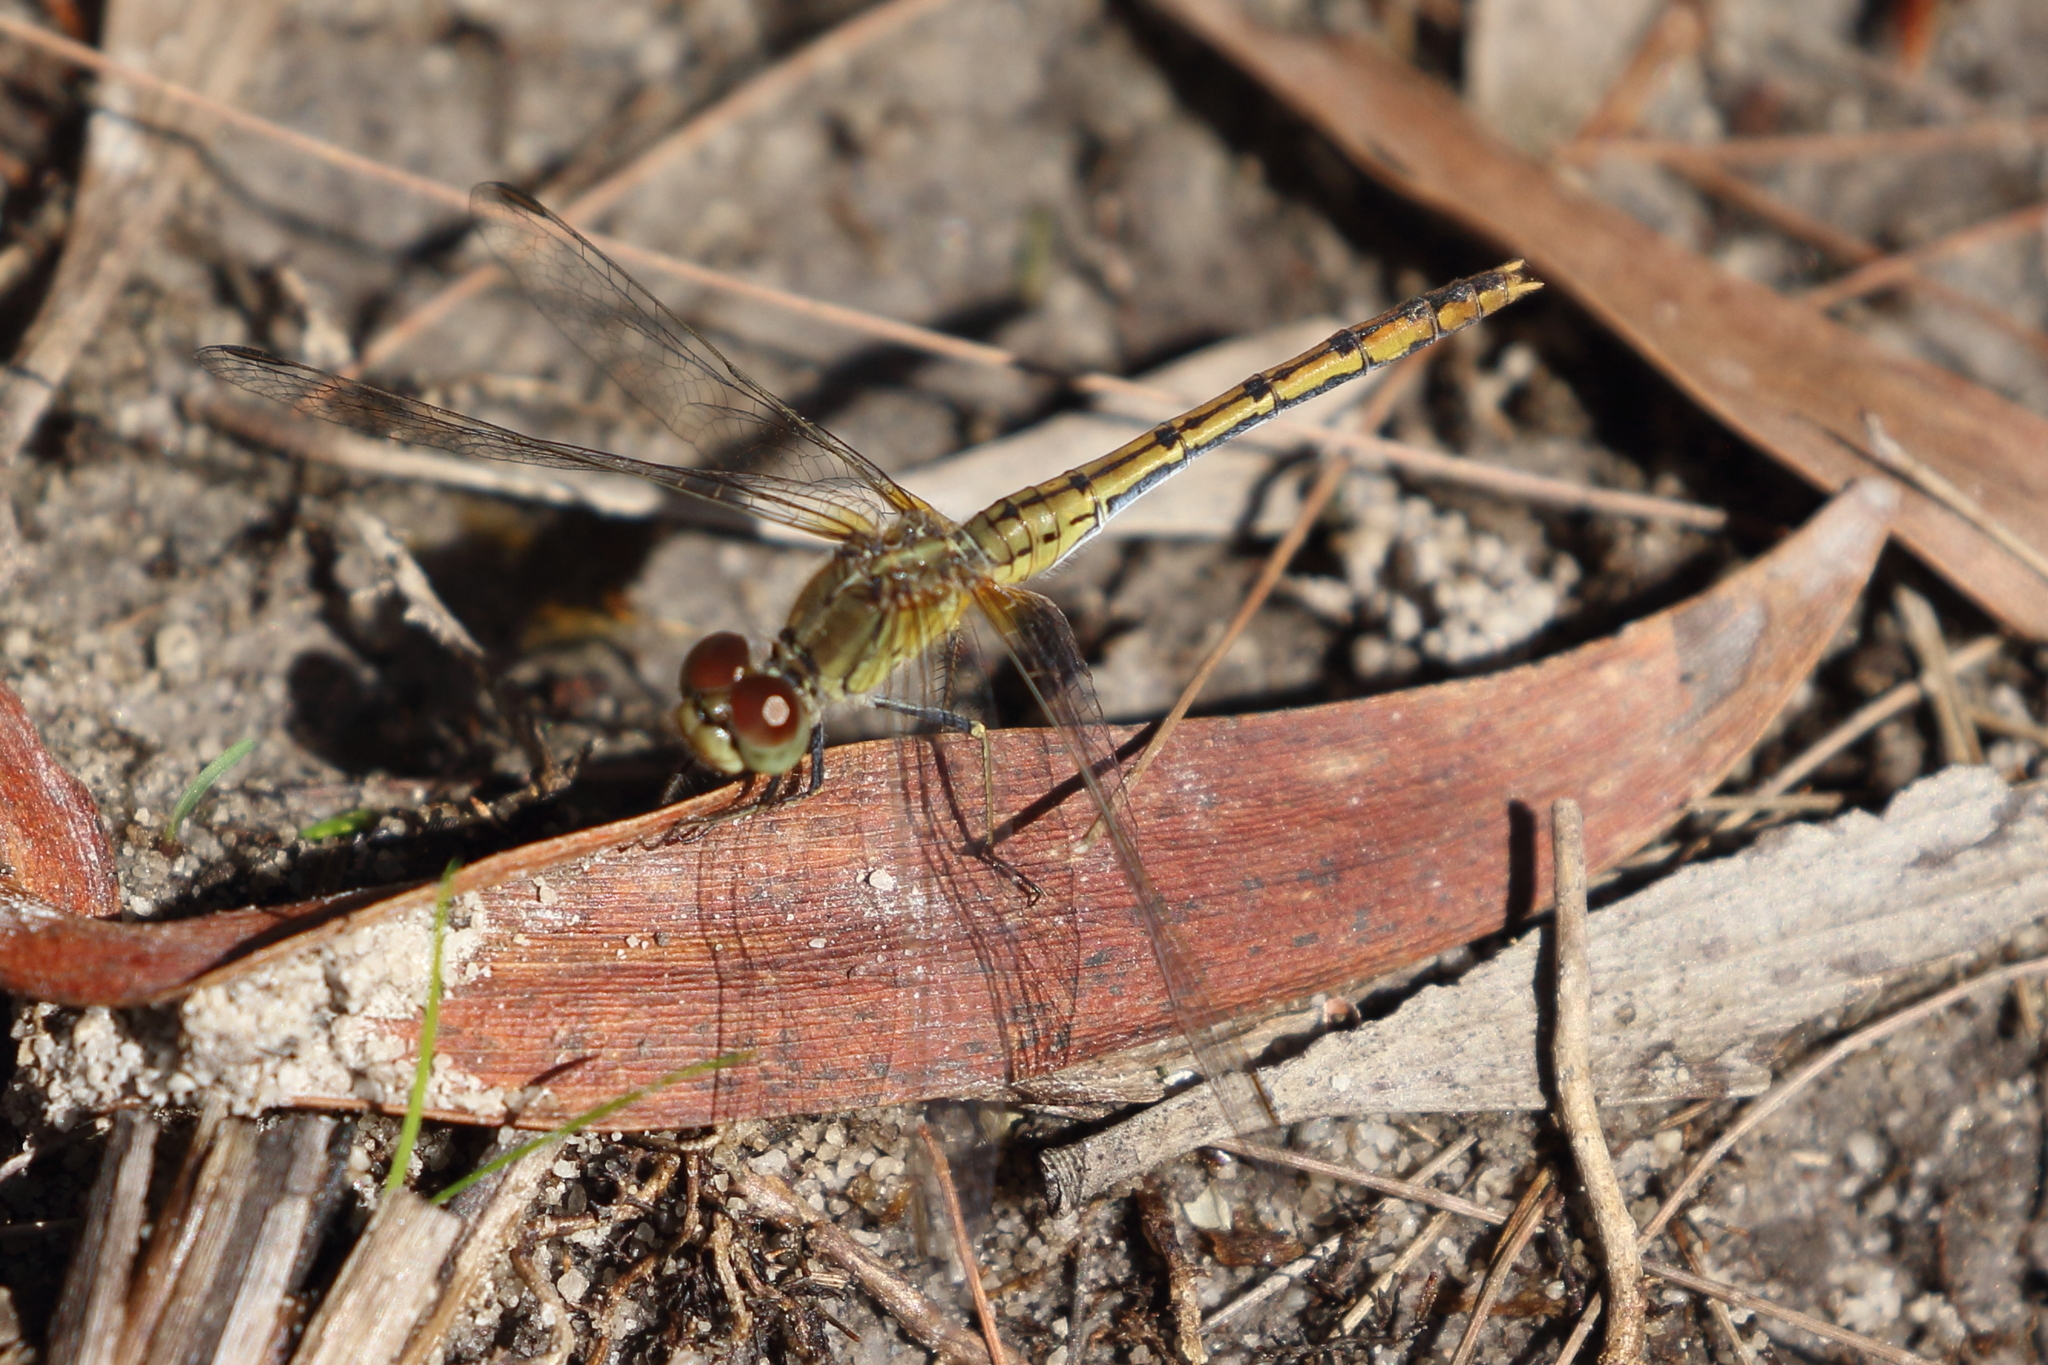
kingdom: Animalia
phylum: Arthropoda
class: Insecta
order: Odonata
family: Libellulidae
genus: Diplacodes
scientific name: Diplacodes bipunctata
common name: Red percher dragonfly
